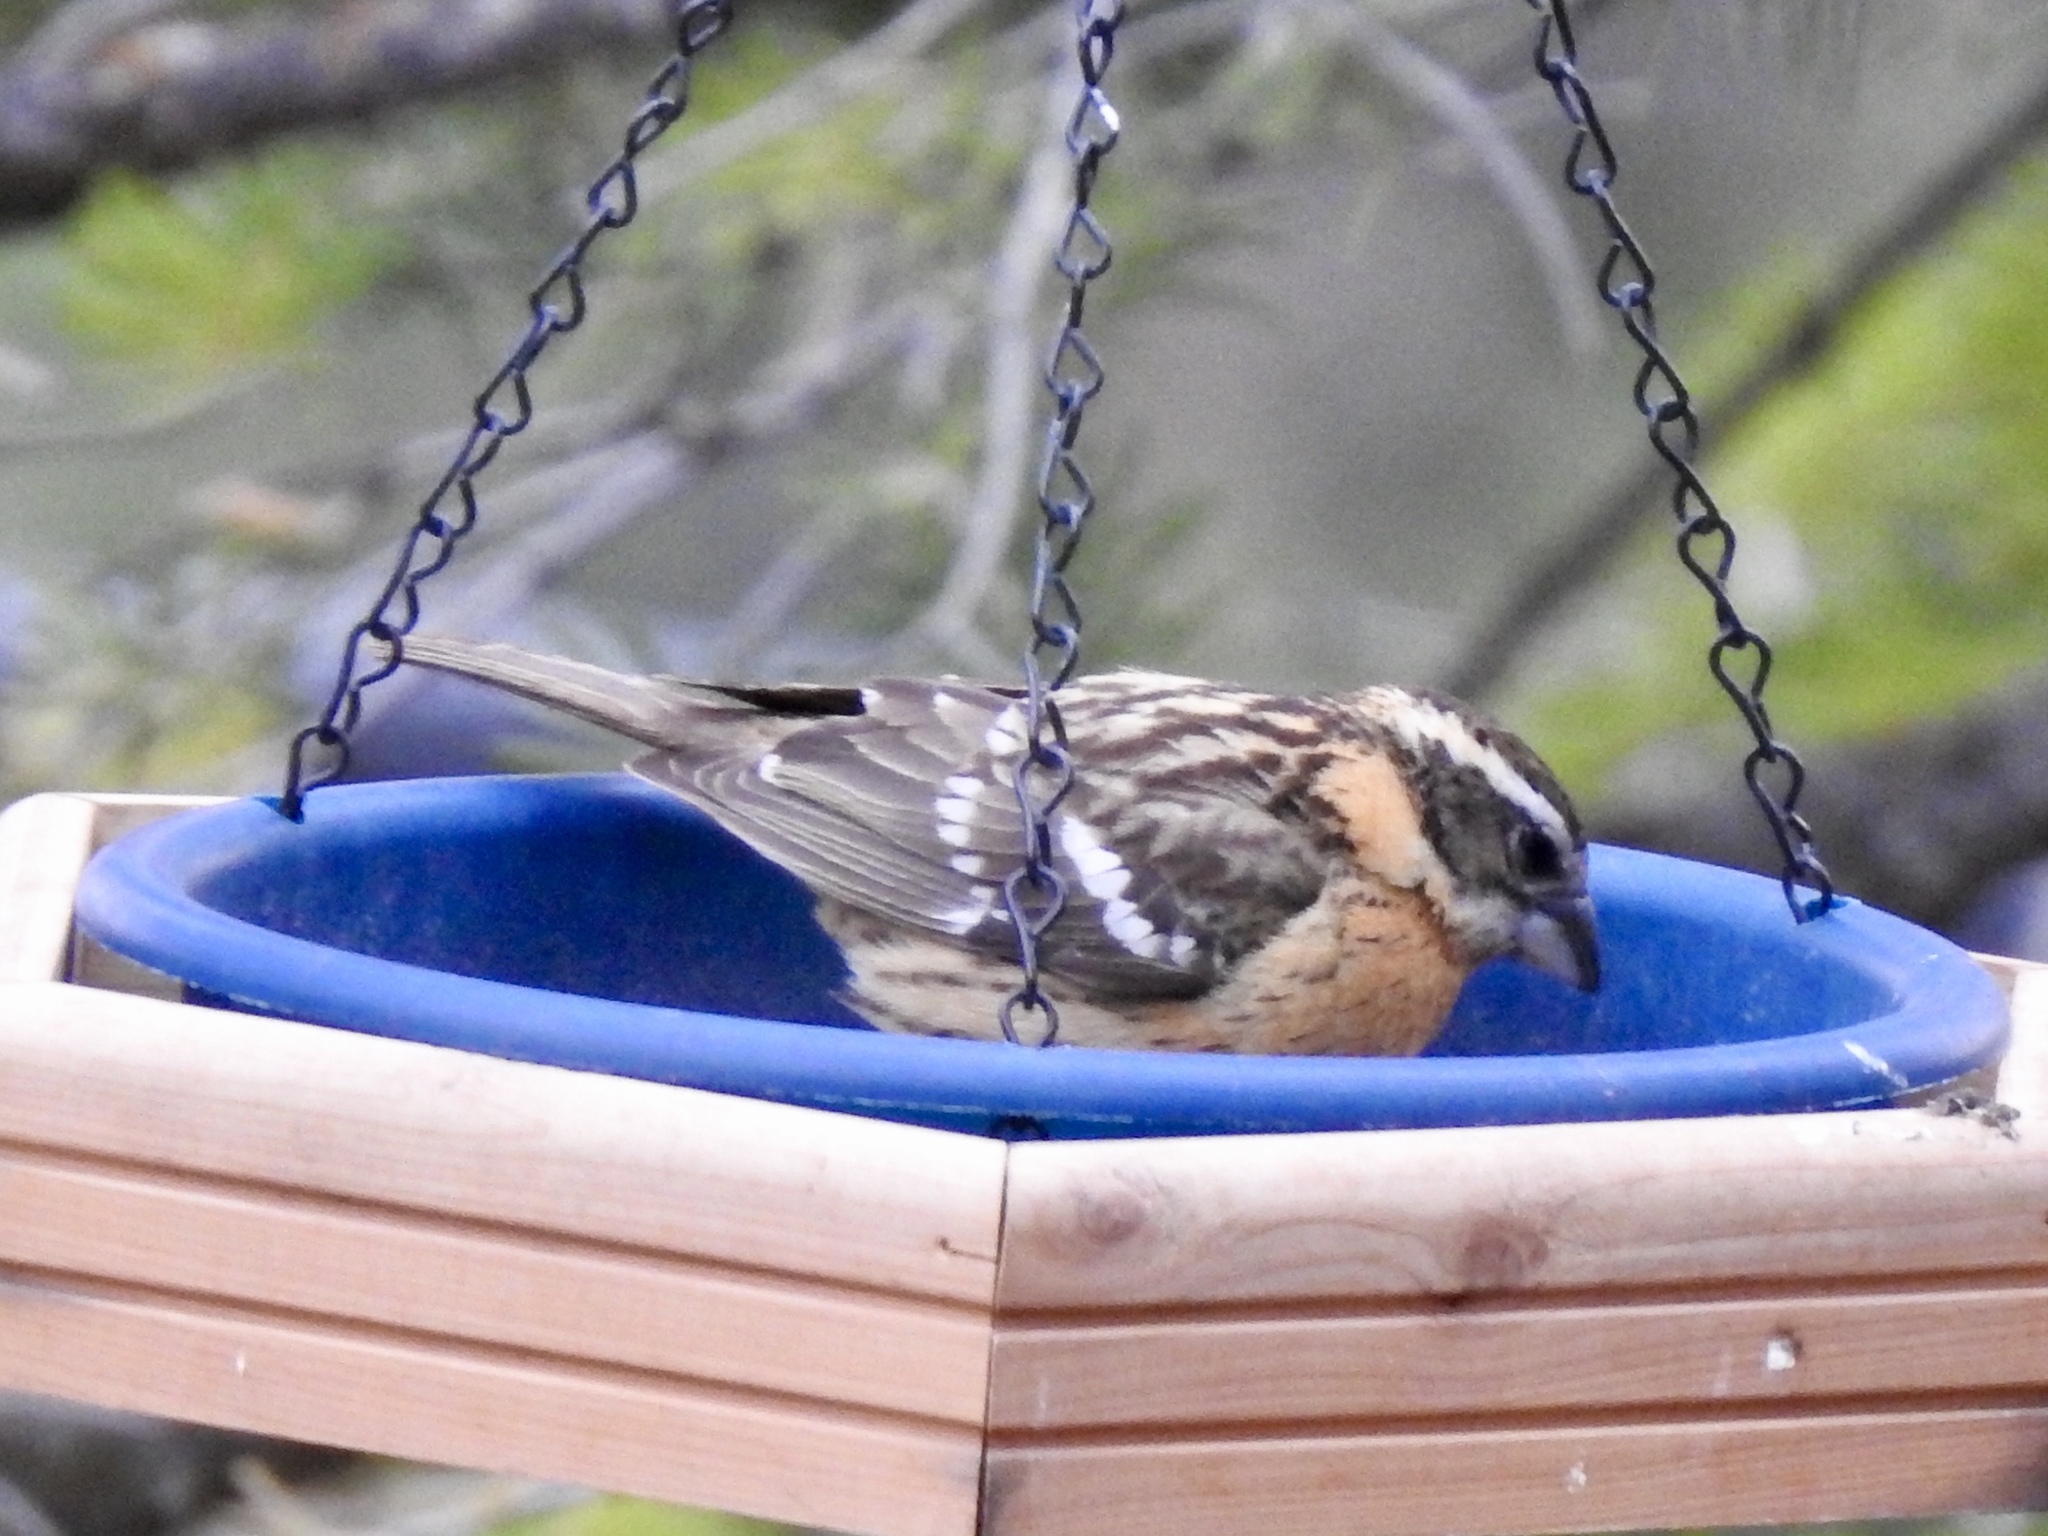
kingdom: Animalia
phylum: Chordata
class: Aves
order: Passeriformes
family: Cardinalidae
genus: Pheucticus
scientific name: Pheucticus melanocephalus
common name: Black-headed grosbeak
